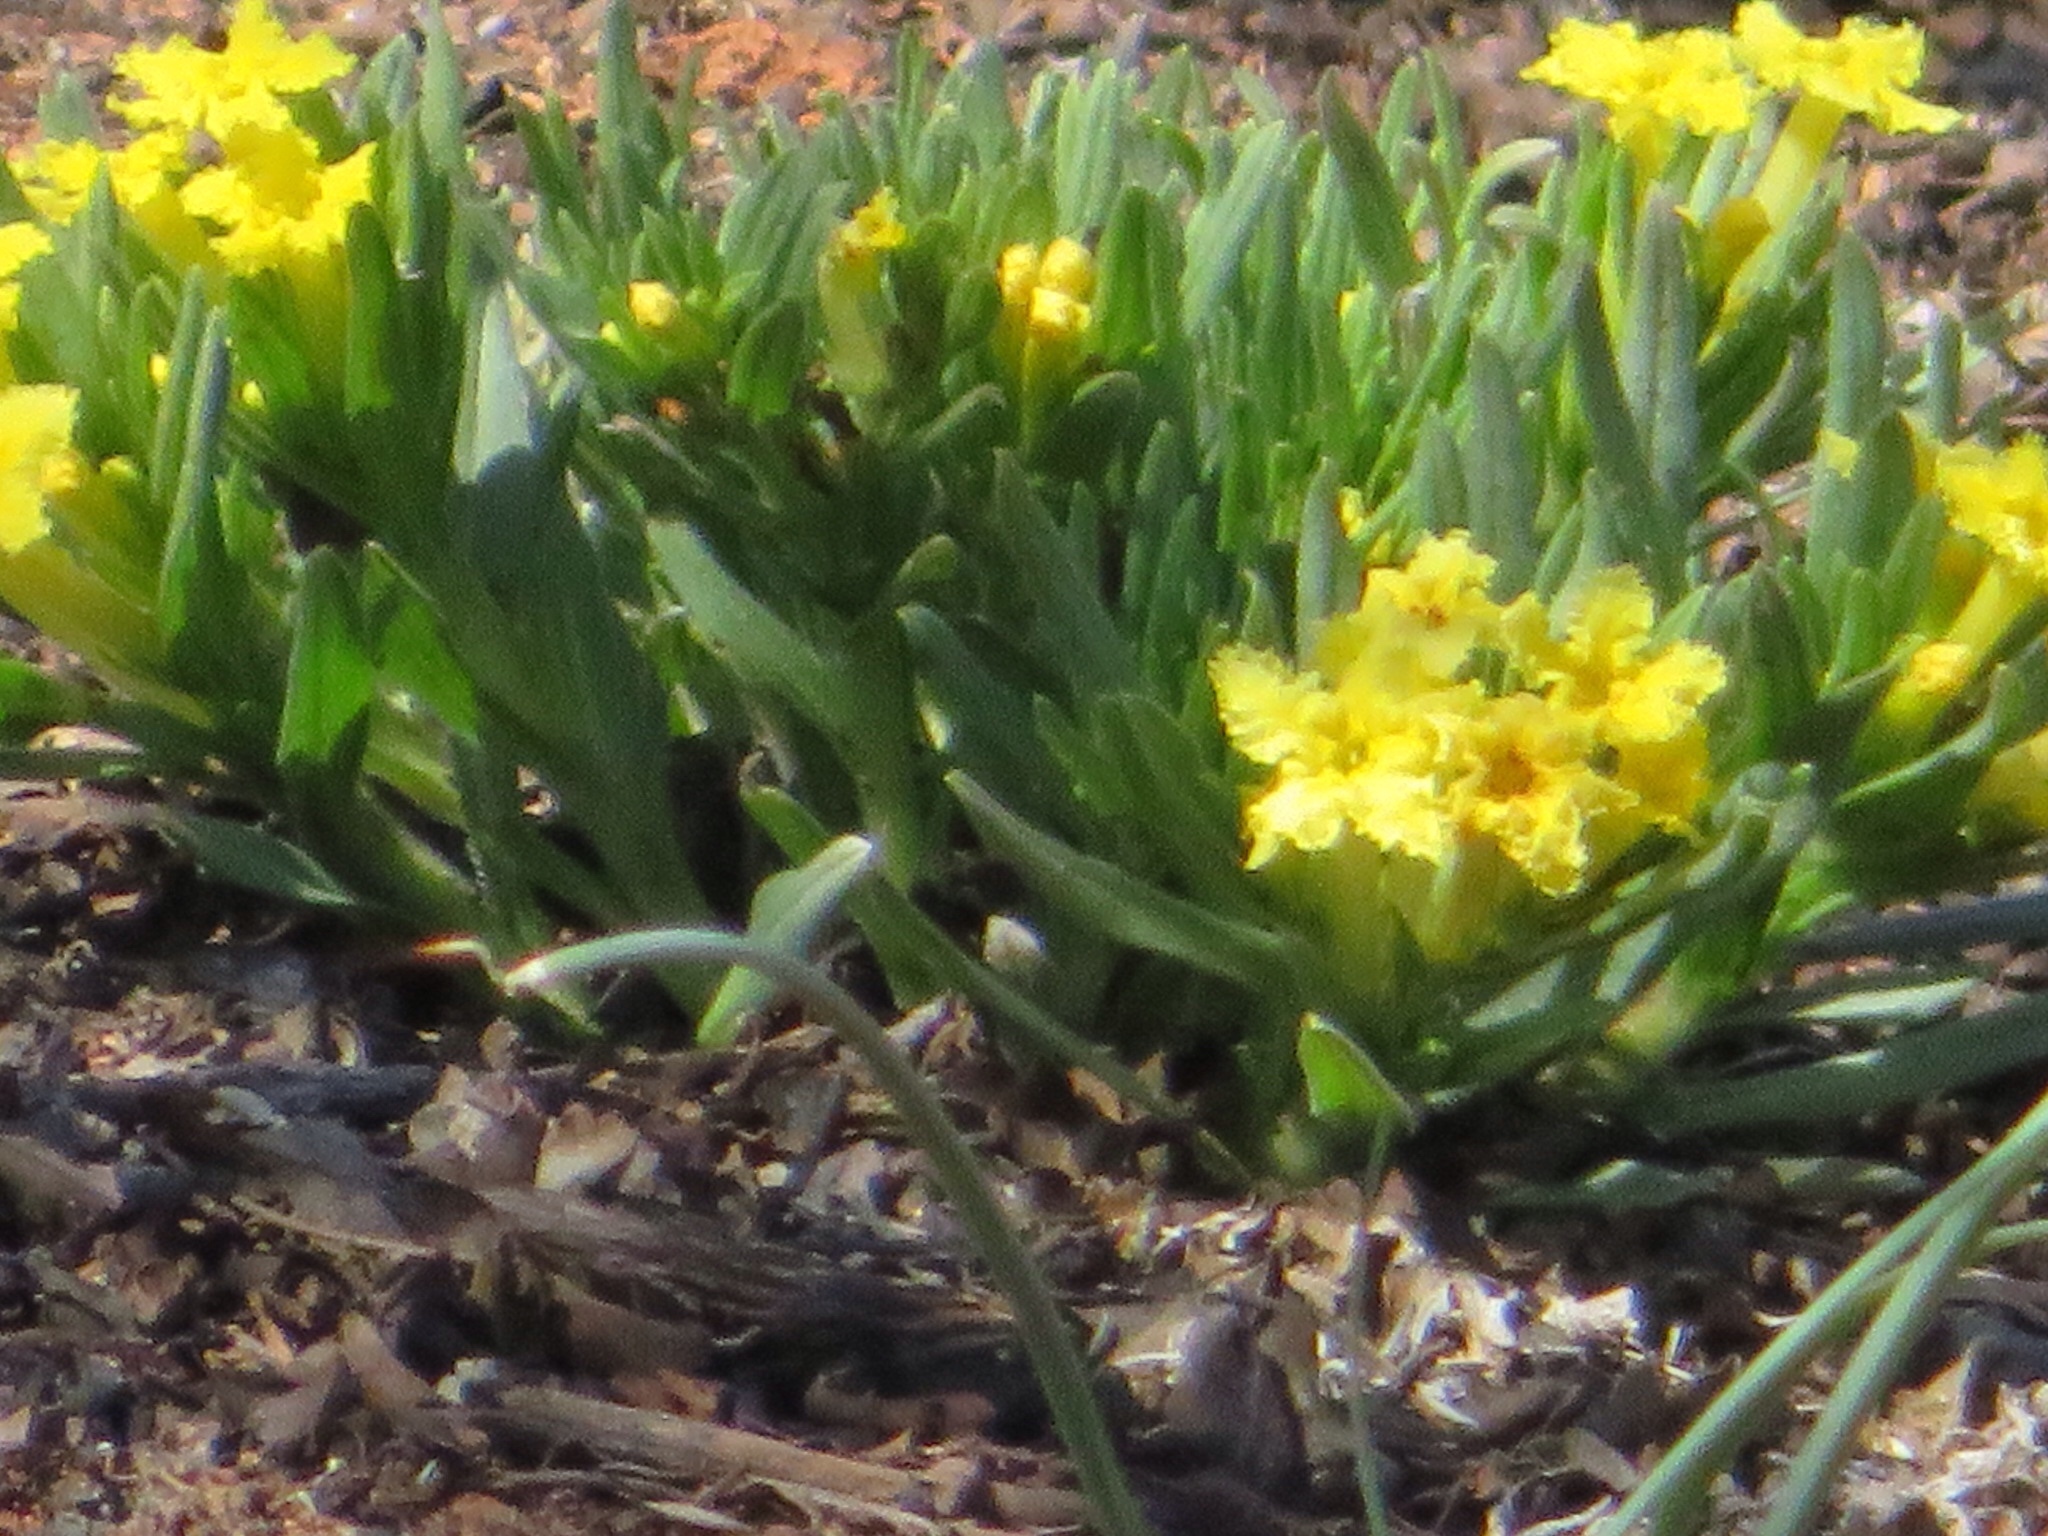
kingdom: Plantae
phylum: Tracheophyta
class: Magnoliopsida
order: Boraginales
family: Boraginaceae
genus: Lithospermum
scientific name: Lithospermum incisum
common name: Fringed gromwell
